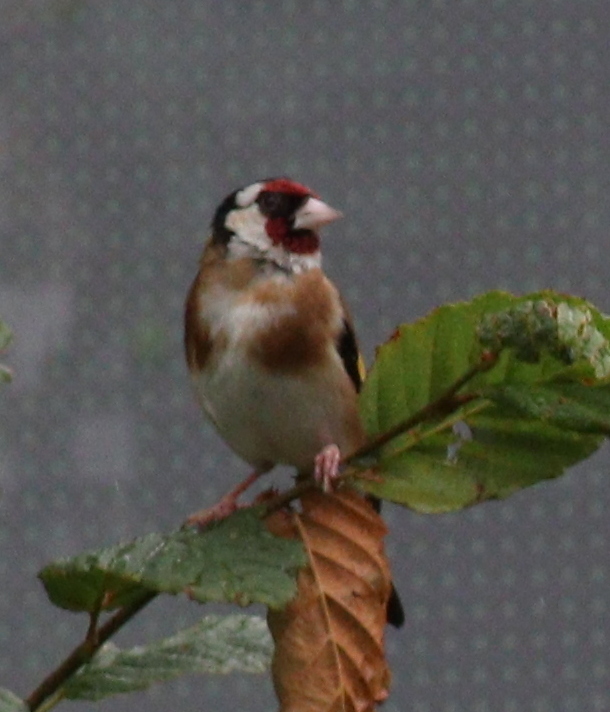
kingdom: Animalia
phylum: Chordata
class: Aves
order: Passeriformes
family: Fringillidae
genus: Carduelis
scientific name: Carduelis carduelis
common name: European goldfinch
